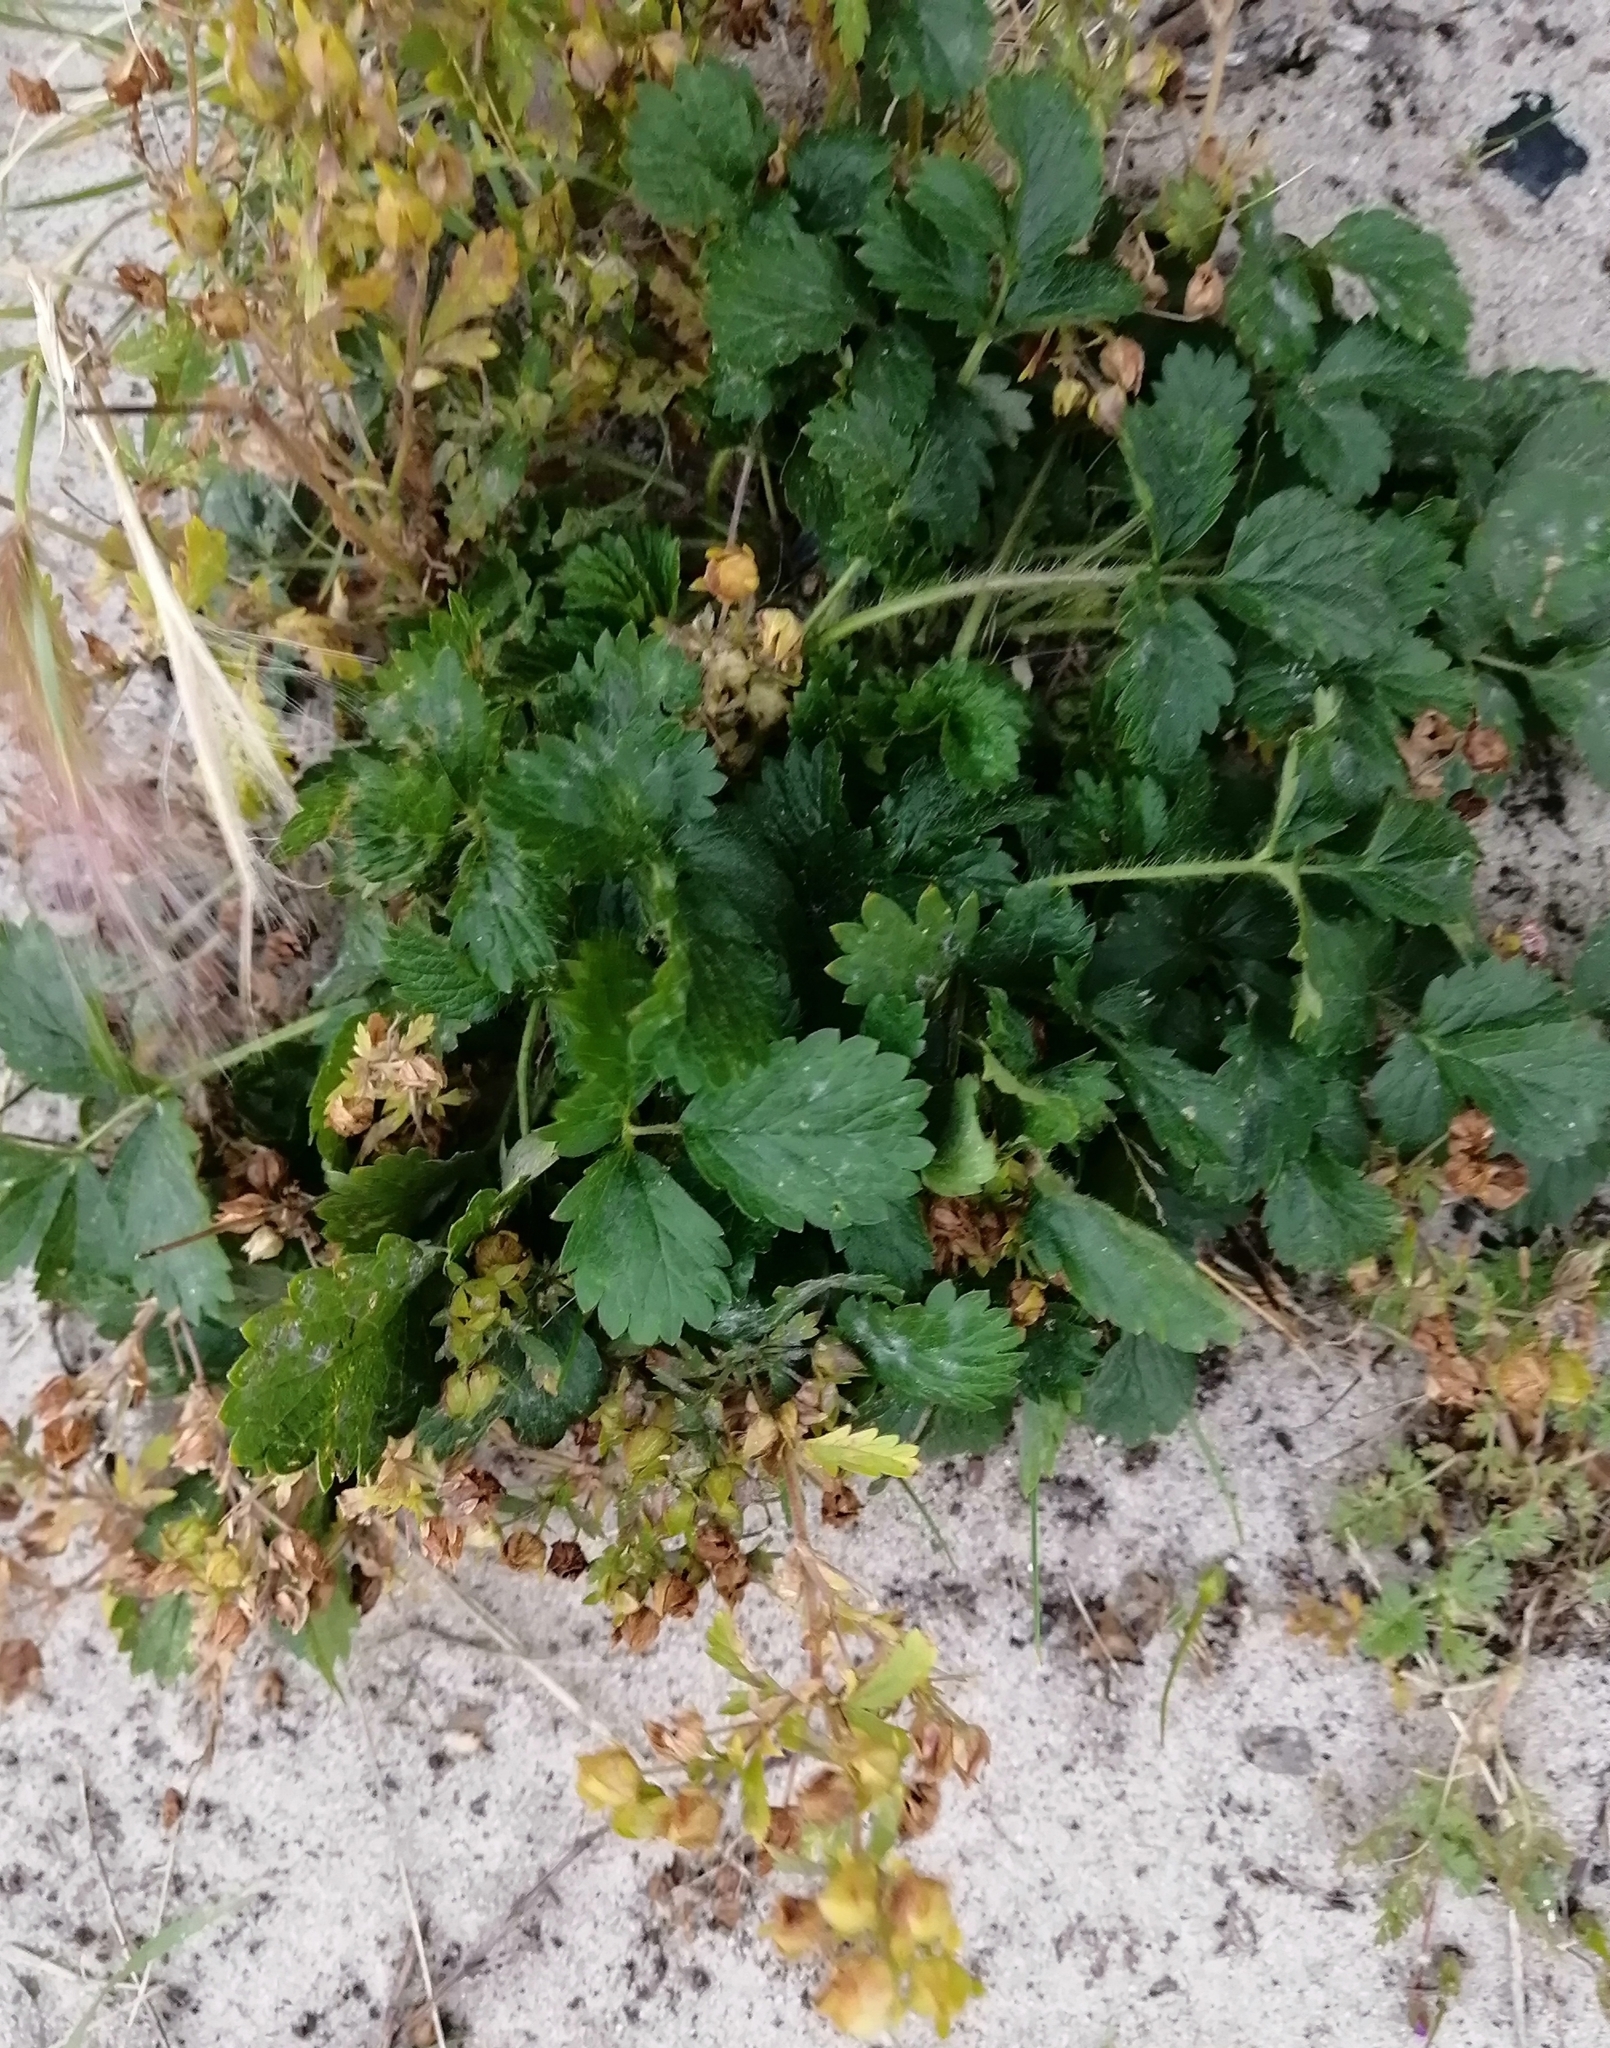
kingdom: Plantae
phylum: Tracheophyta
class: Magnoliopsida
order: Rosales
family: Rosaceae
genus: Potentilla
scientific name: Potentilla norvegica
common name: Ternate-leaved cinquefoil
